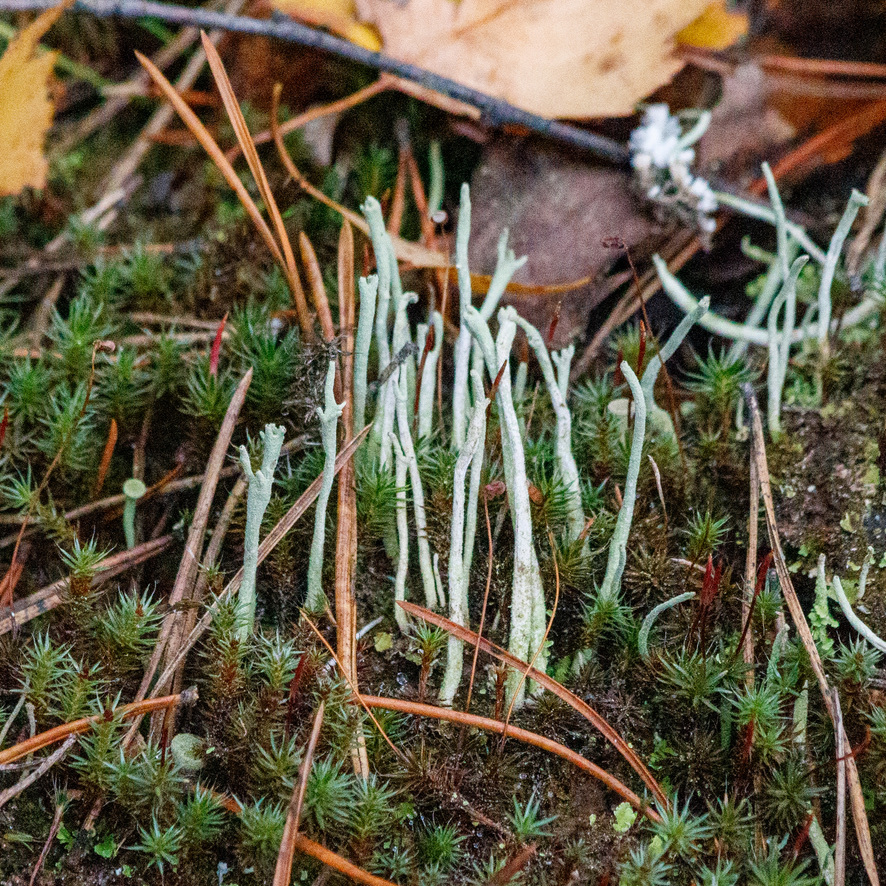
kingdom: Fungi
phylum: Ascomycota
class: Lecanoromycetes
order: Lecanorales
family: Cladoniaceae
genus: Cladonia
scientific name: Cladonia cornuta
